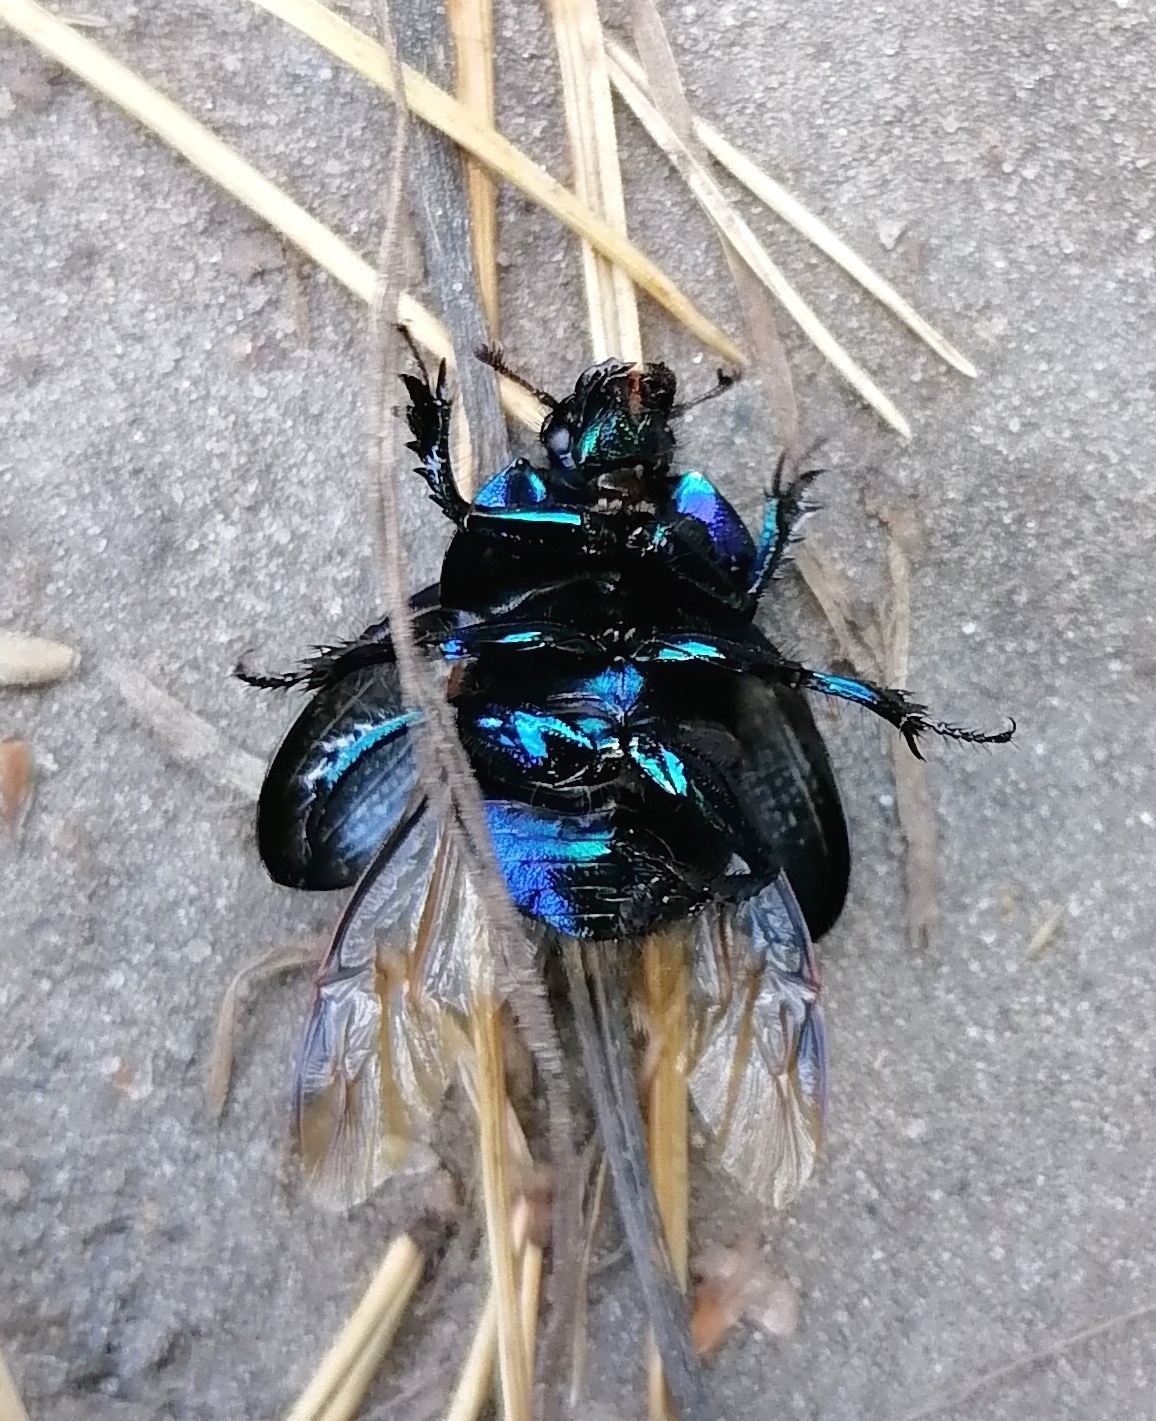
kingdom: Animalia
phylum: Arthropoda
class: Insecta
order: Coleoptera
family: Geotrupidae
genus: Anoplotrupes
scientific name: Anoplotrupes stercorosus
